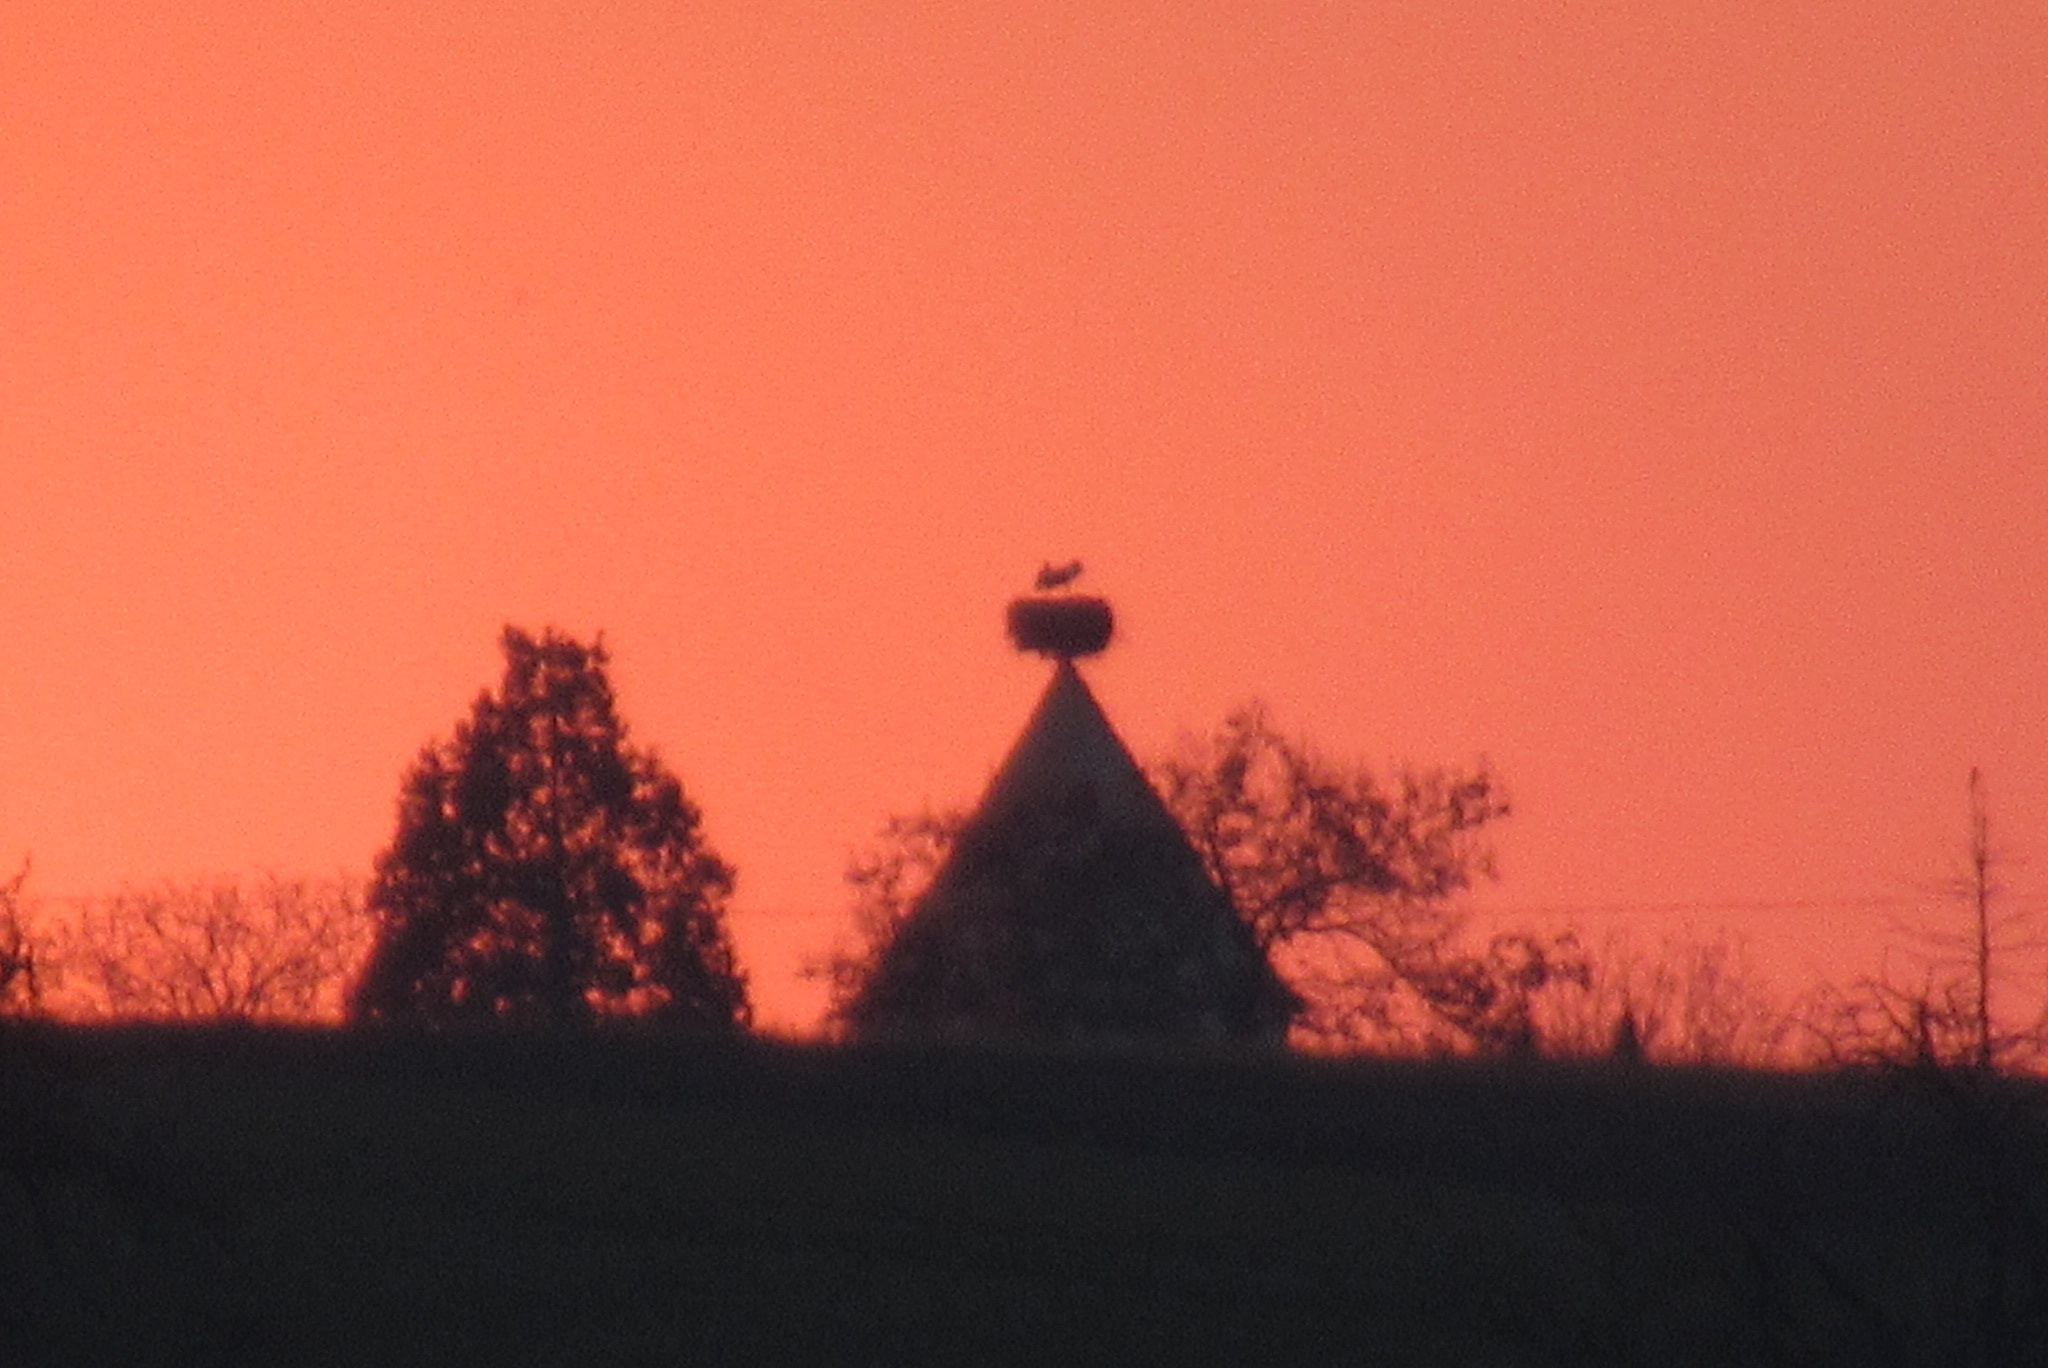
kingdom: Animalia
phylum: Chordata
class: Aves
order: Ciconiiformes
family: Ciconiidae
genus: Ciconia
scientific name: Ciconia ciconia
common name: White stork
